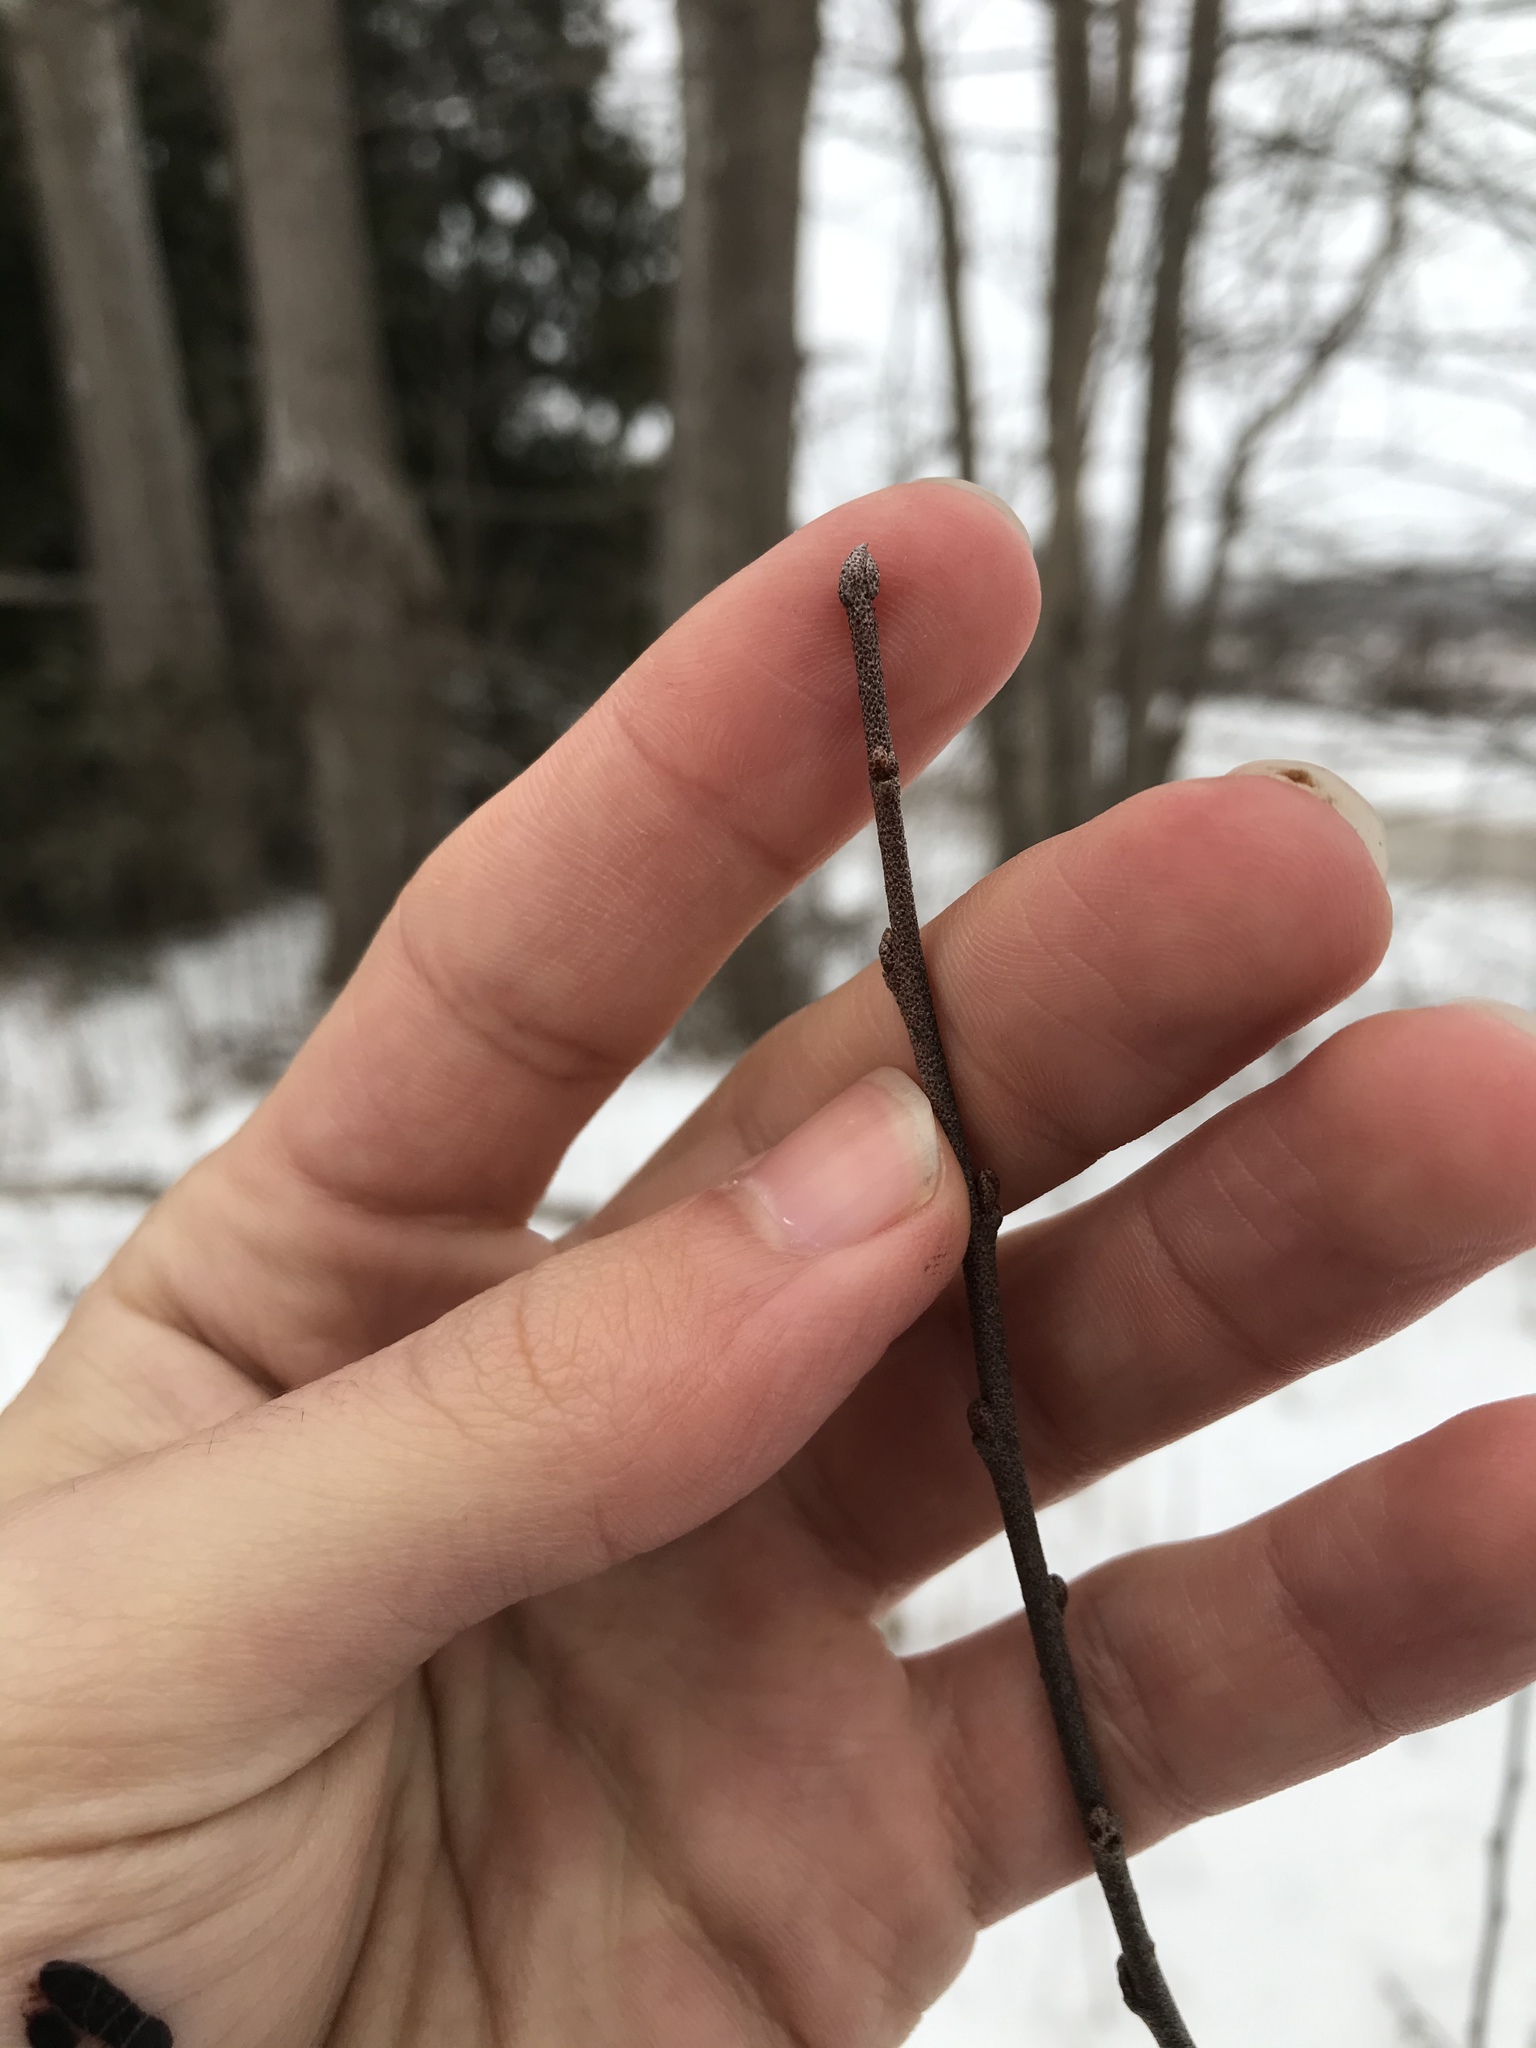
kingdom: Plantae
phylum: Tracheophyta
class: Magnoliopsida
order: Rosales
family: Elaeagnaceae
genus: Elaeagnus
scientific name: Elaeagnus umbellata
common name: Autumn olive
